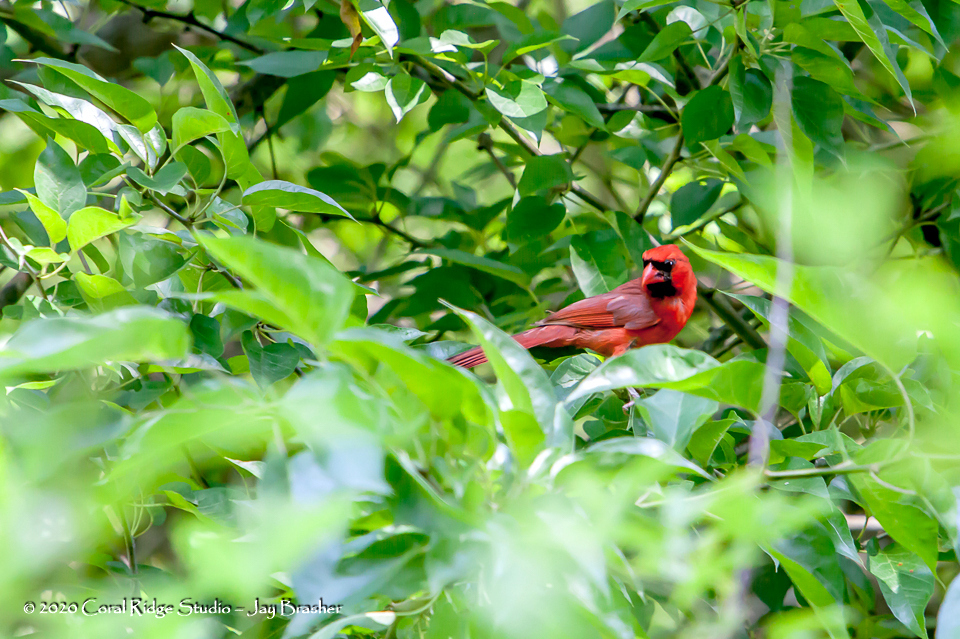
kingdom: Animalia
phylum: Chordata
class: Aves
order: Passeriformes
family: Cardinalidae
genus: Cardinalis
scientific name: Cardinalis cardinalis
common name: Northern cardinal
